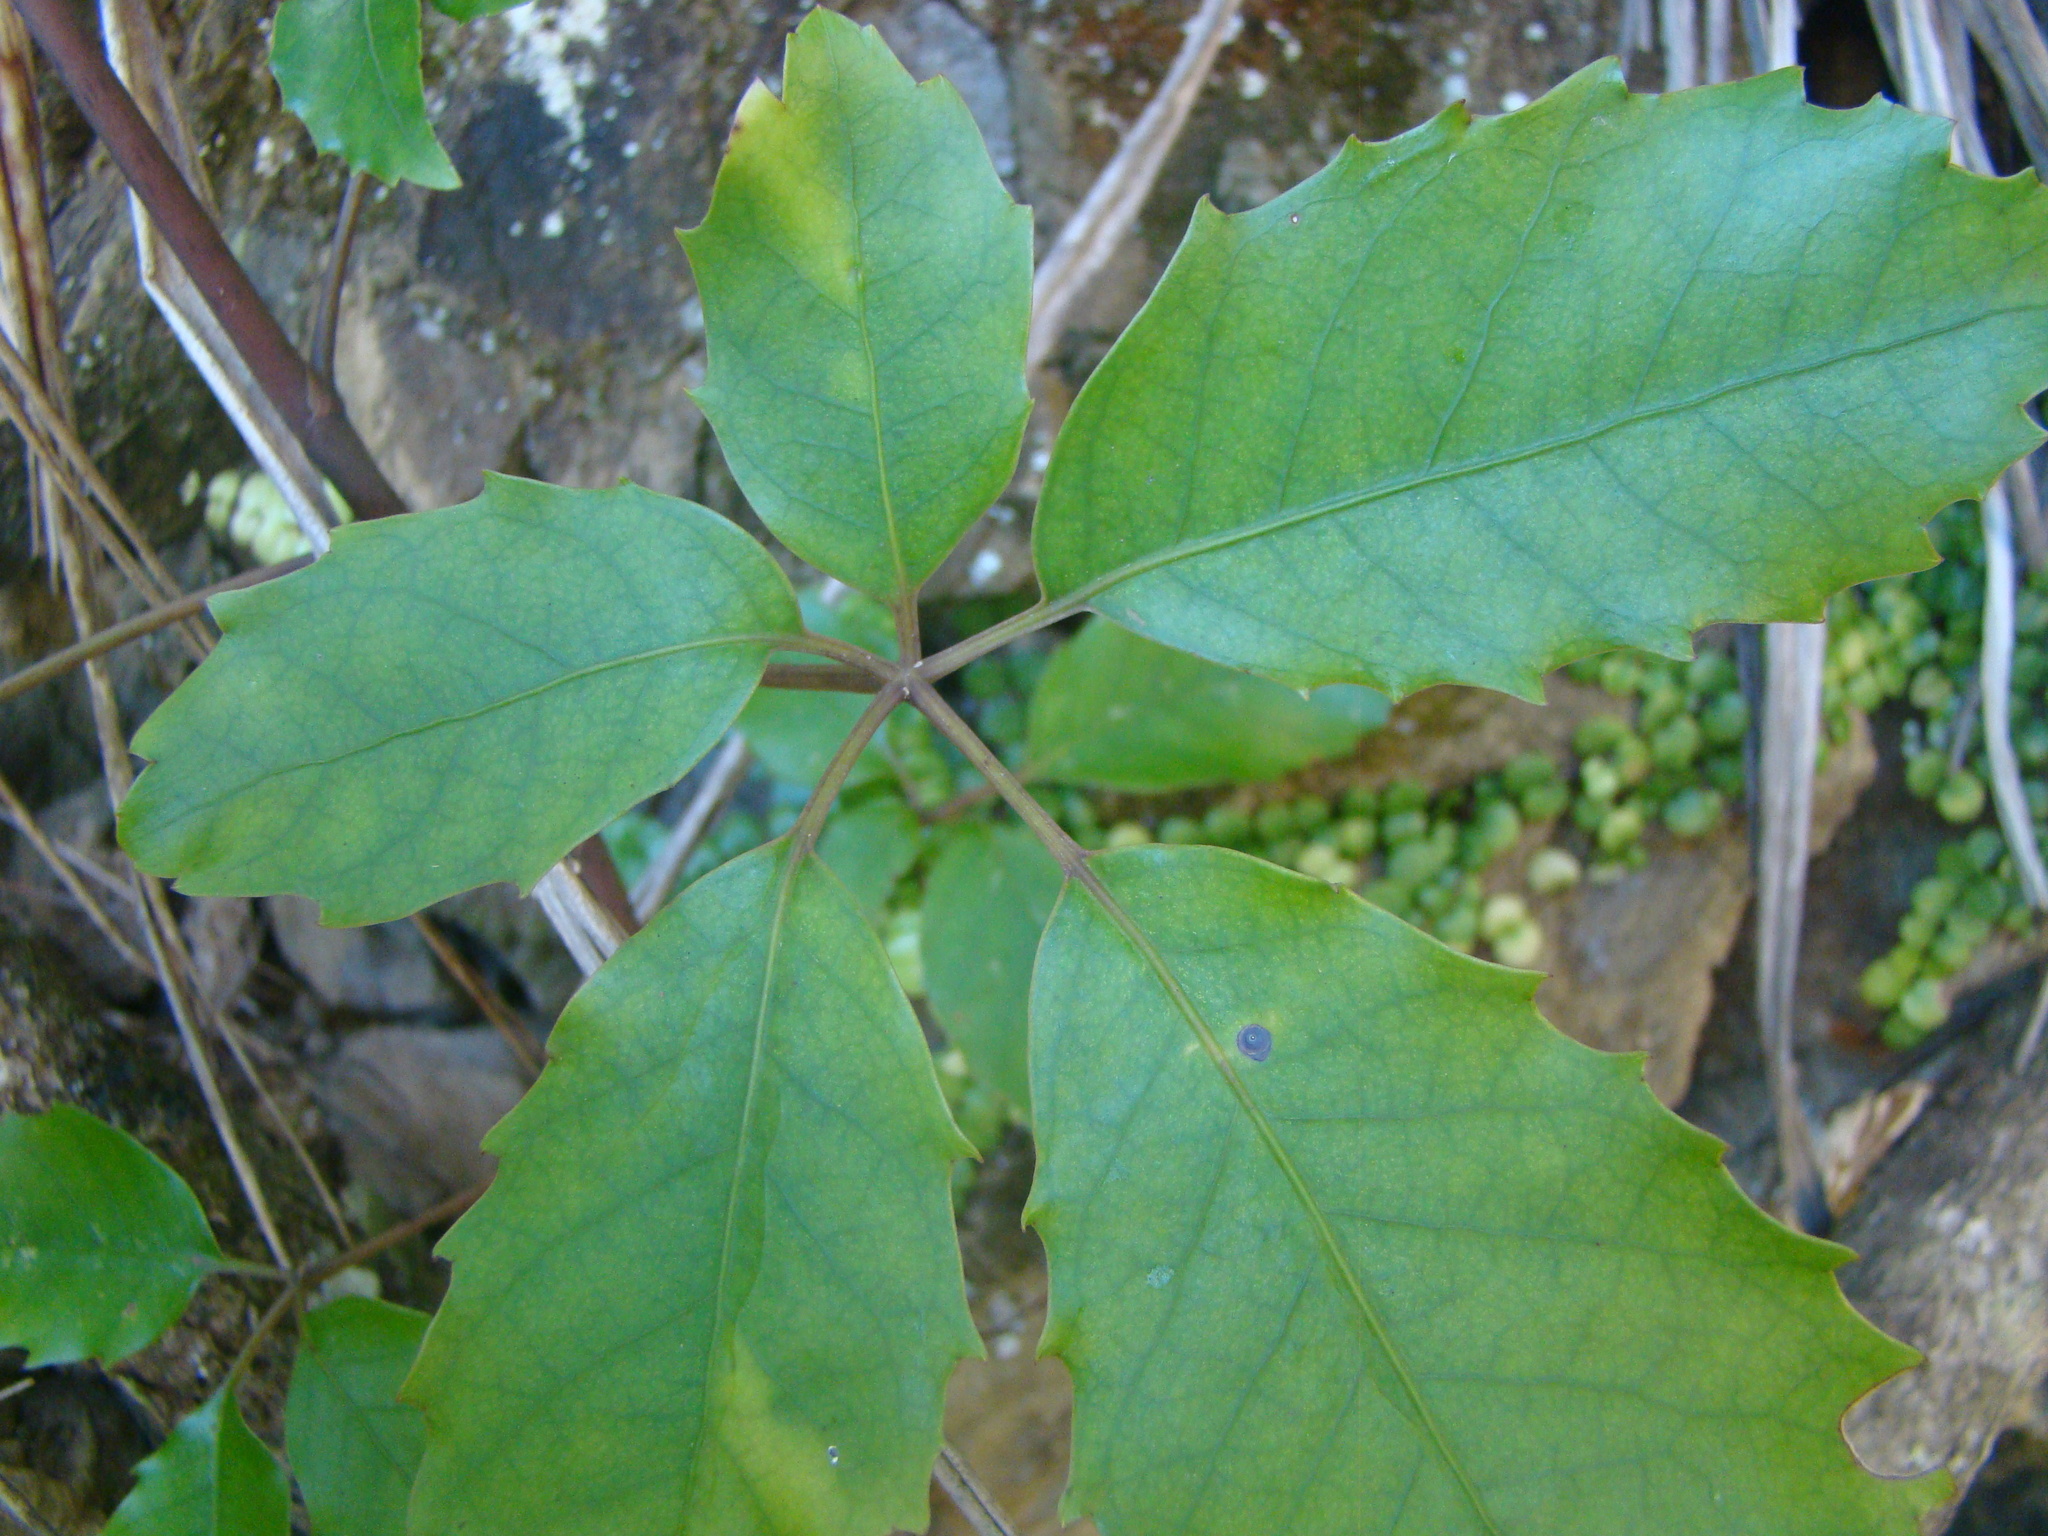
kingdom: Plantae
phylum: Tracheophyta
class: Magnoliopsida
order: Apiales
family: Araliaceae
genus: Neopanax
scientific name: Neopanax arboreus
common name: Five-fingers
